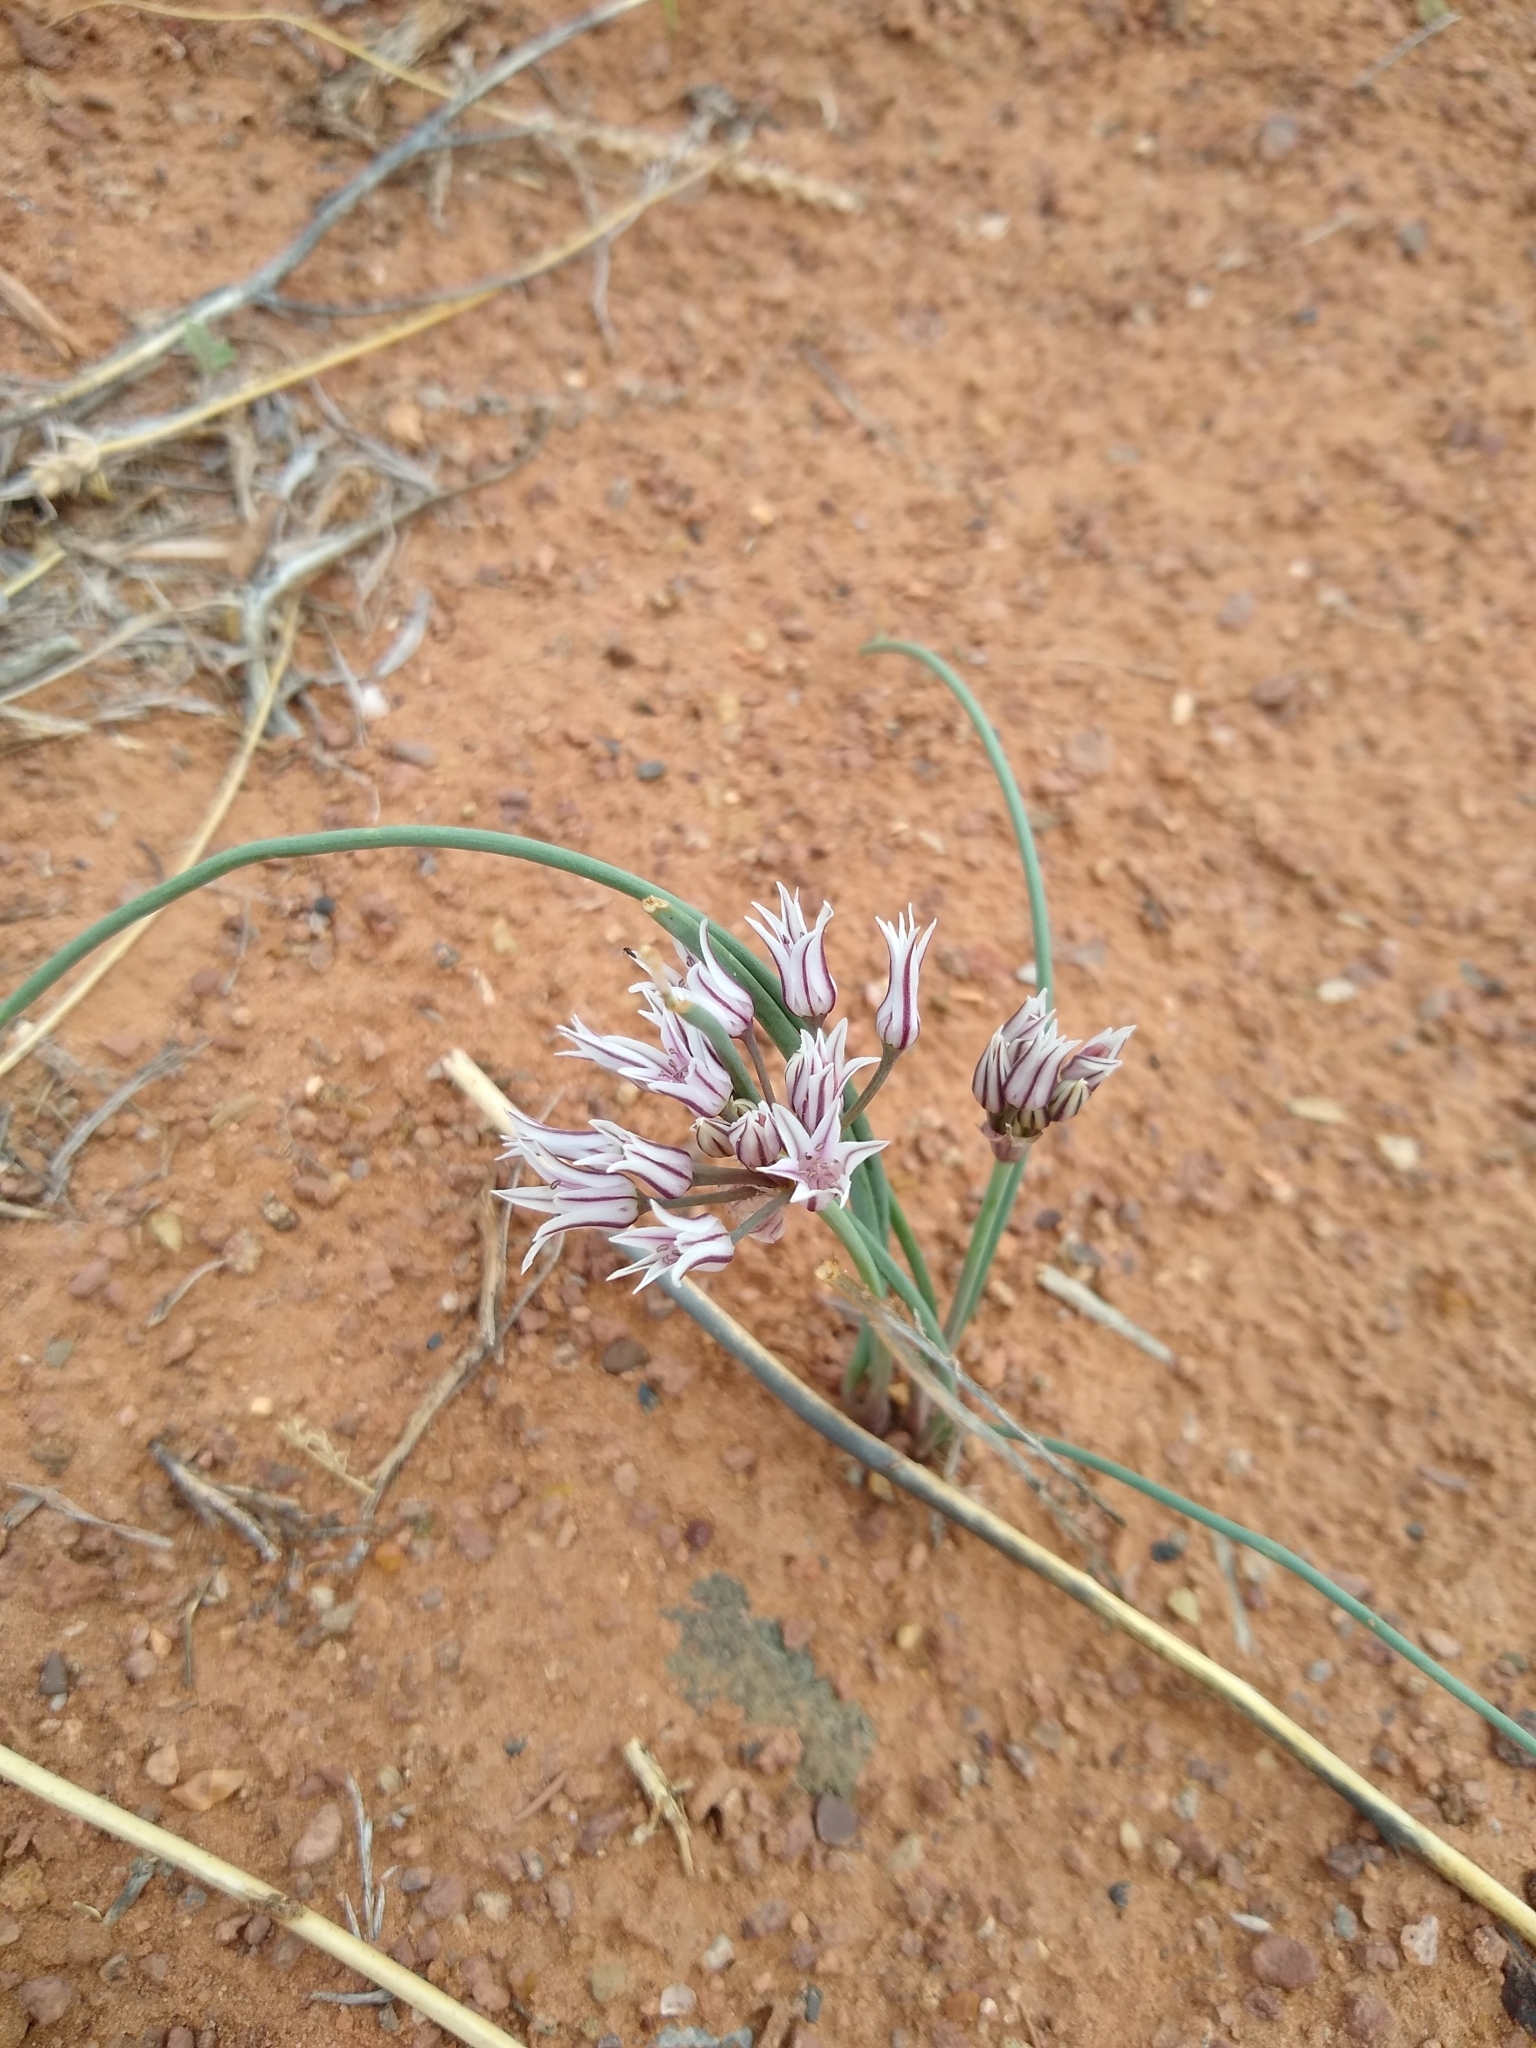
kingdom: Plantae
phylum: Tracheophyta
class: Liliopsida
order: Asparagales
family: Amaryllidaceae
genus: Allium
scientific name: Allium macropetalum
